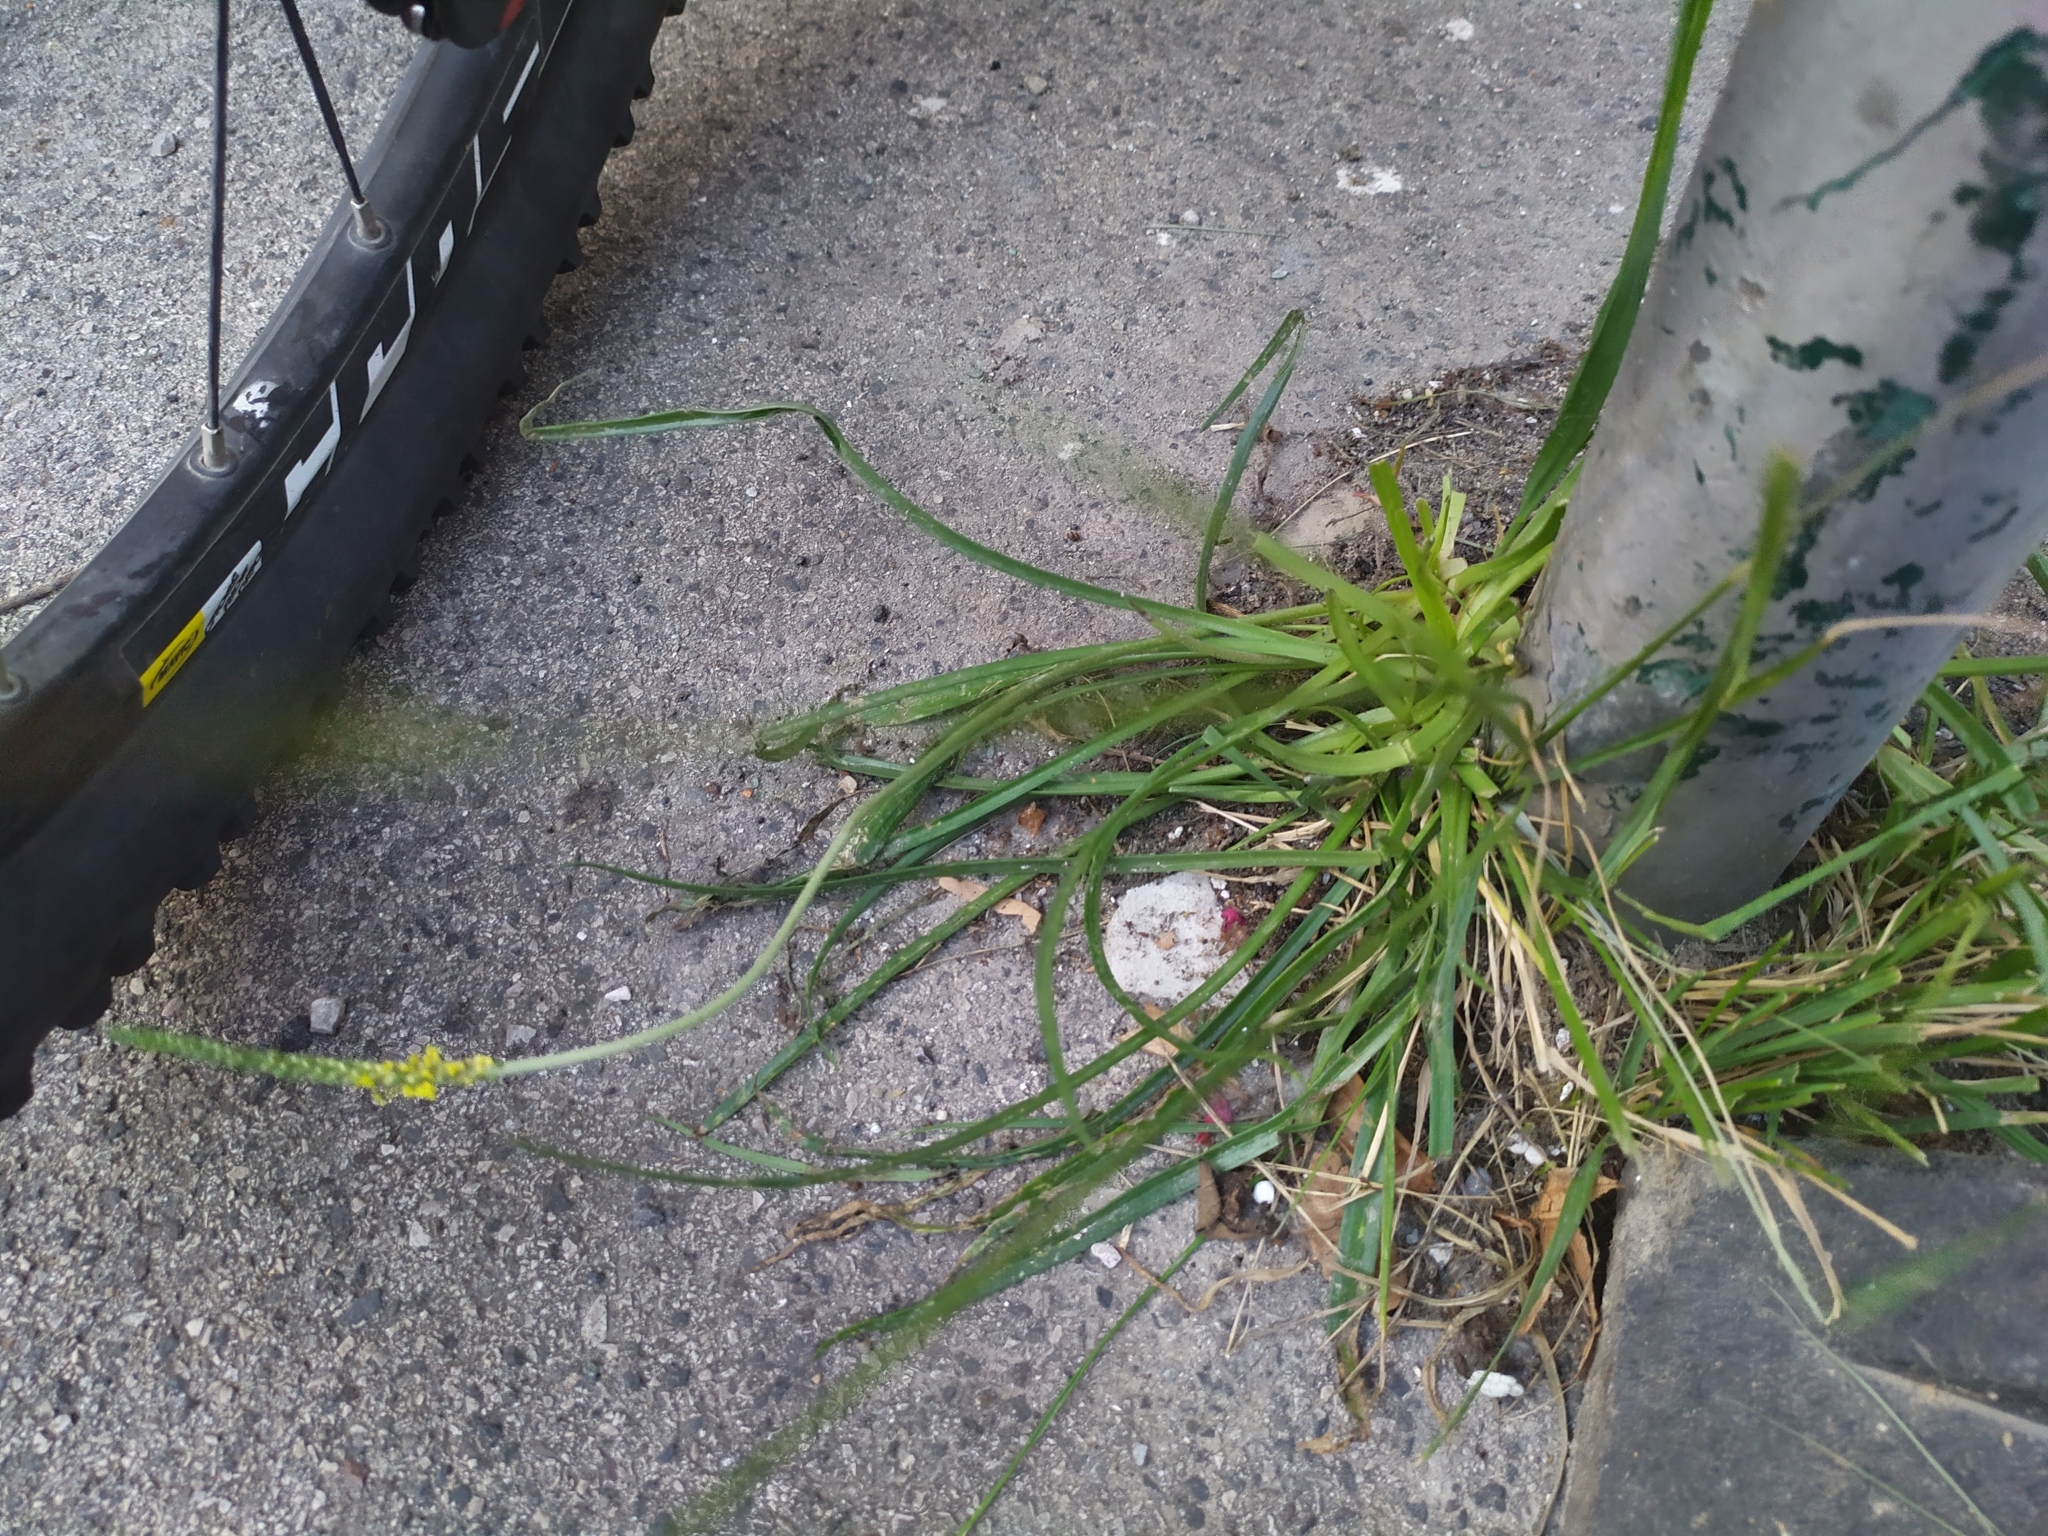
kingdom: Plantae
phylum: Tracheophyta
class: Magnoliopsida
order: Lamiales
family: Plantaginaceae
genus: Plantago
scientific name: Plantago maritima
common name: Sea plantain
